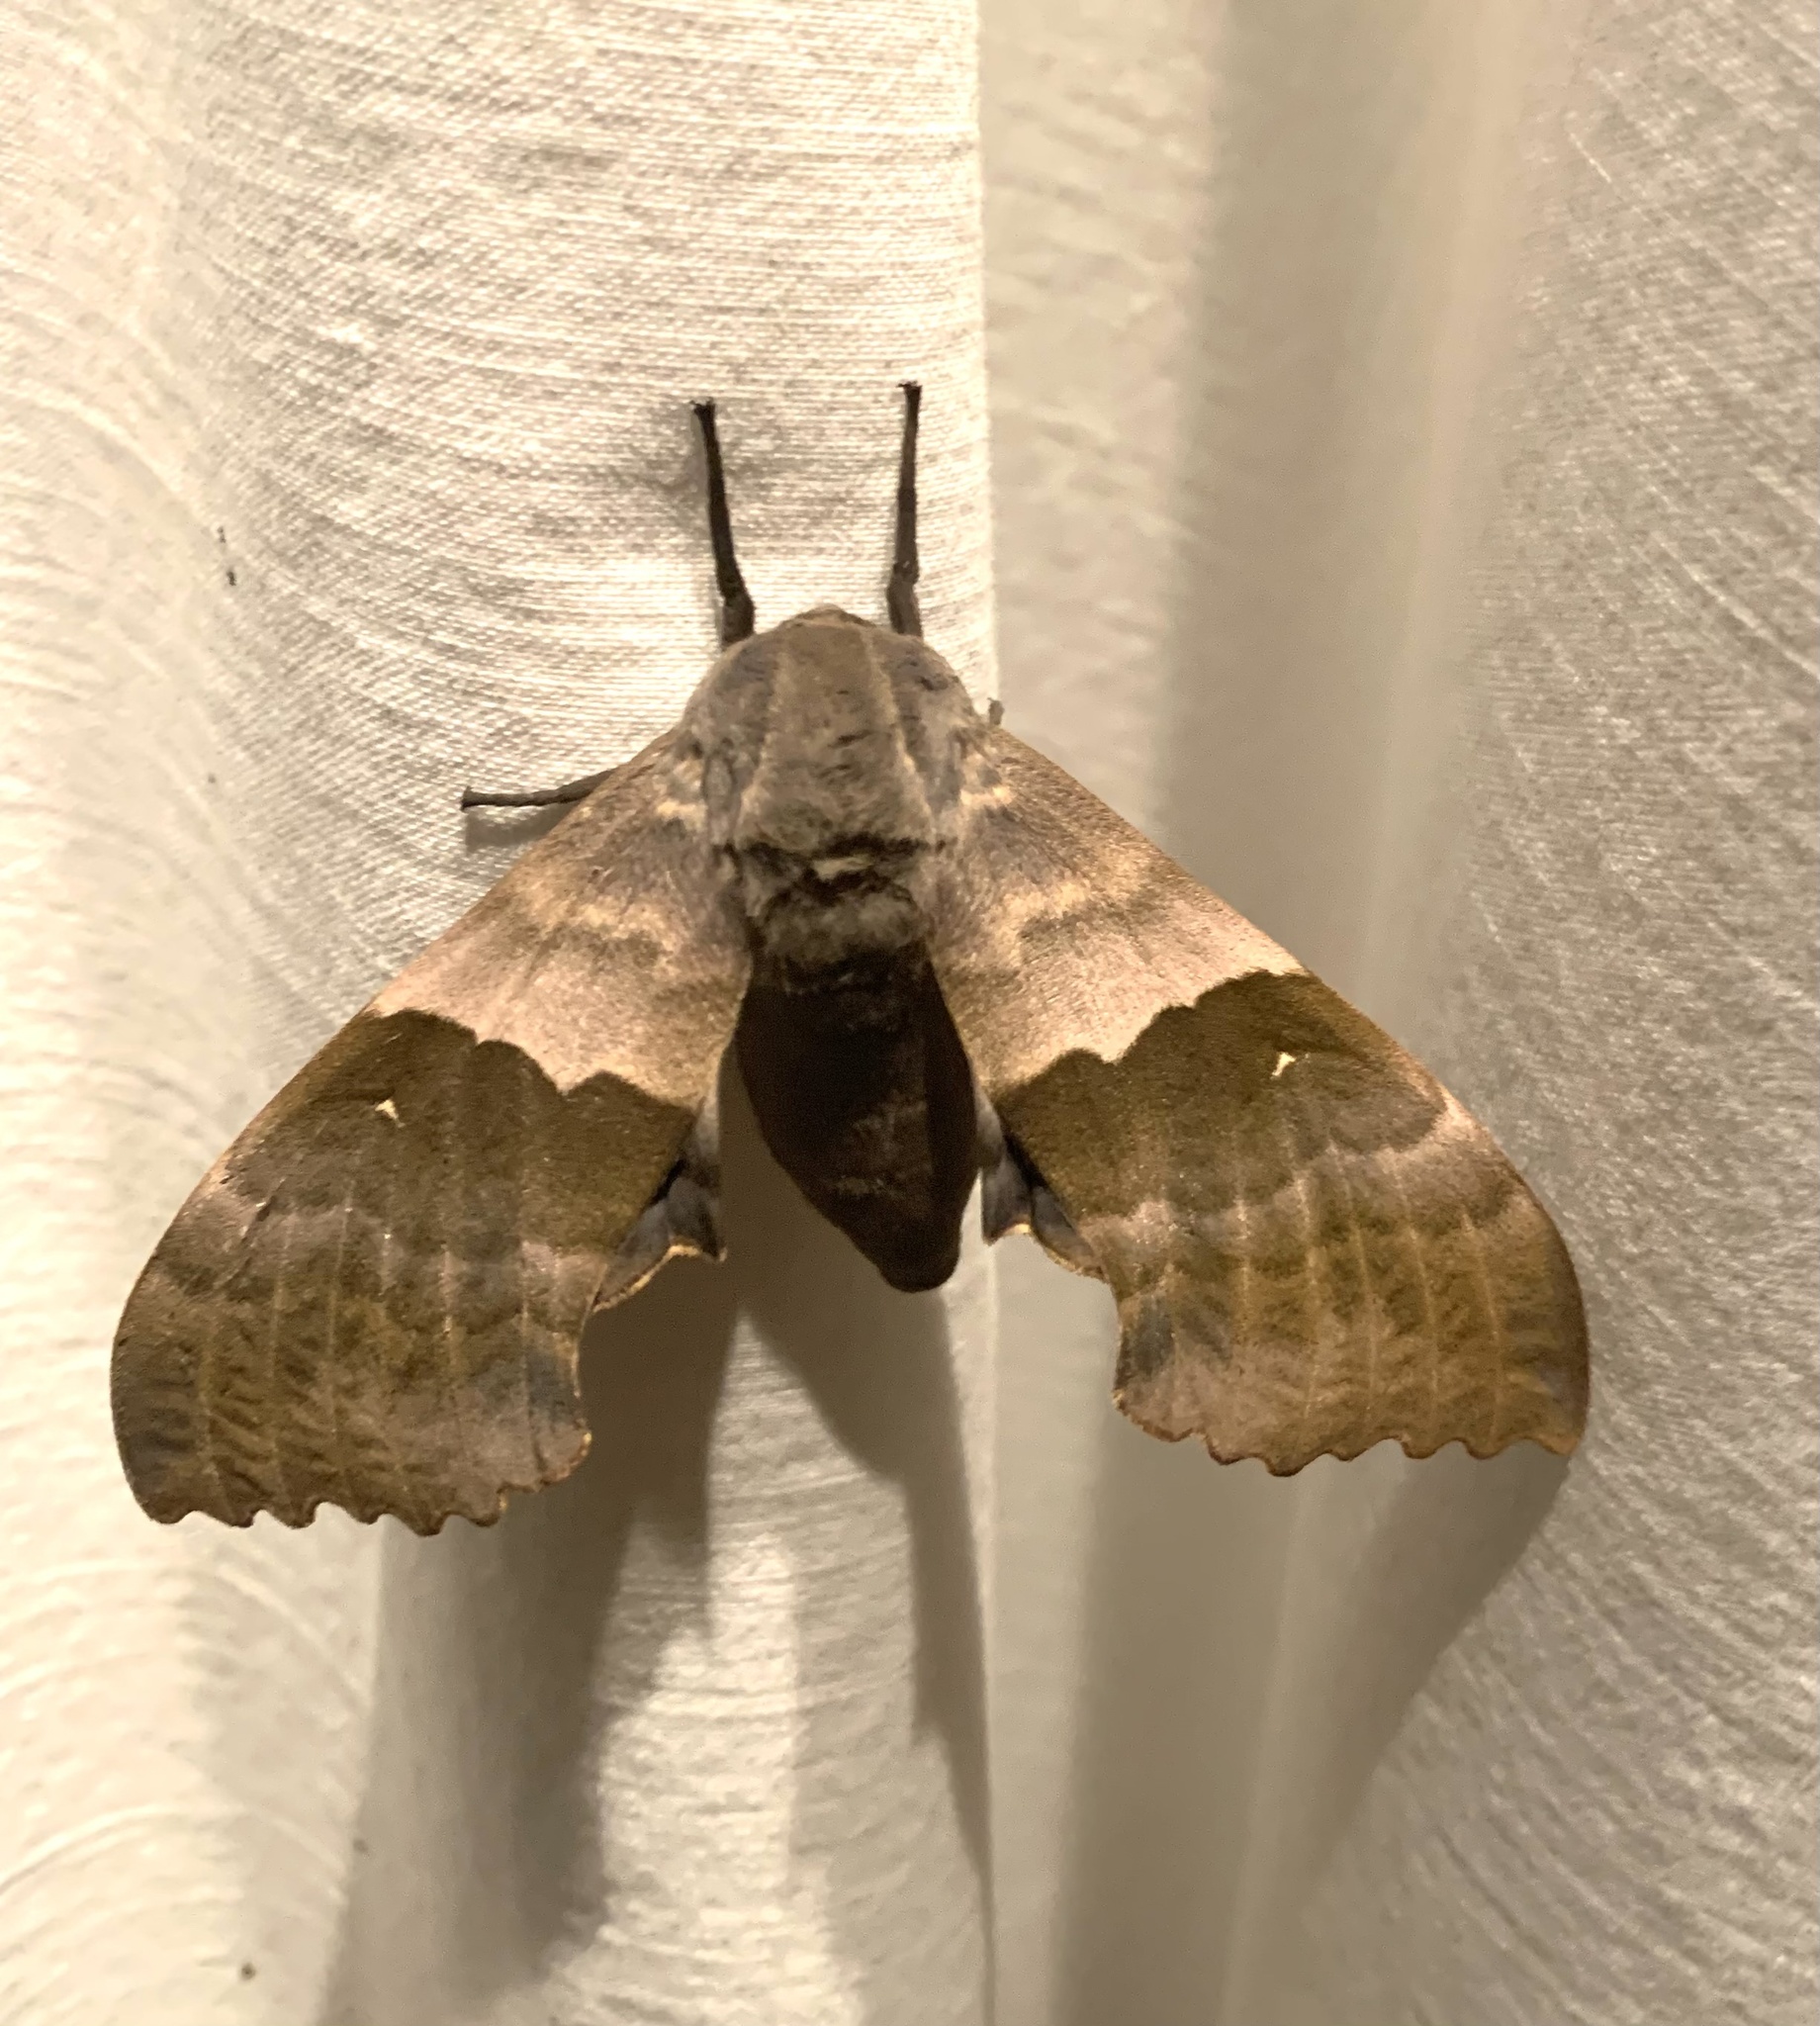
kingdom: Animalia
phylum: Arthropoda
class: Insecta
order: Lepidoptera
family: Sphingidae
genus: Pachysphinx
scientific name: Pachysphinx modesta
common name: Big poplar sphinx
